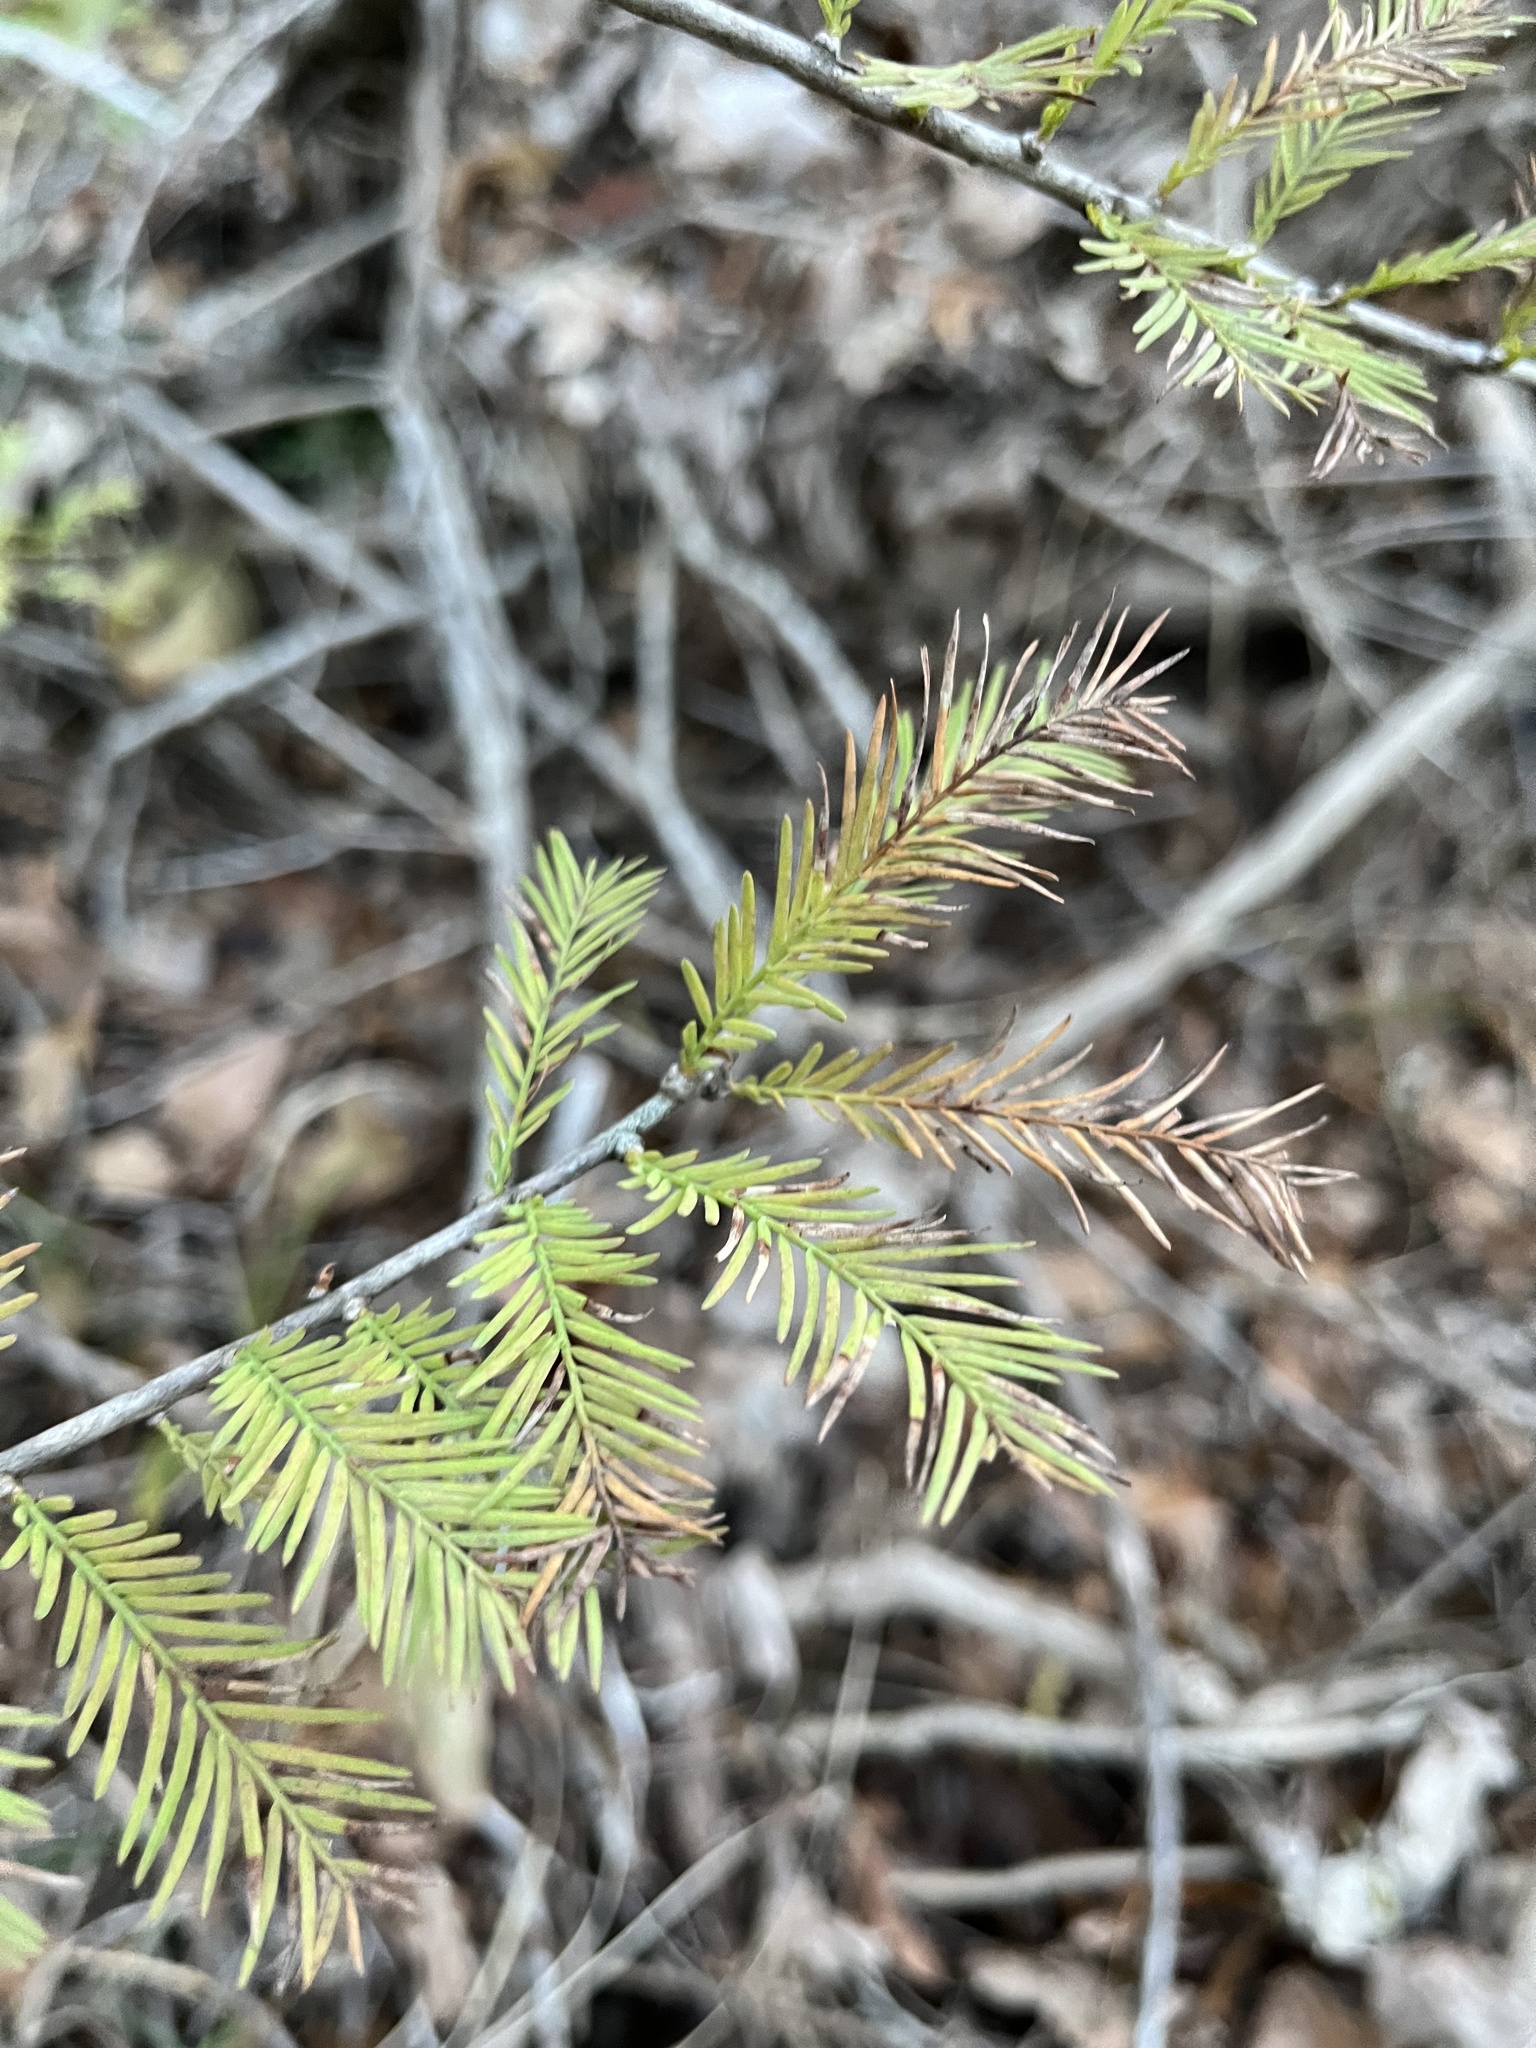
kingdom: Plantae
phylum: Tracheophyta
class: Pinopsida
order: Pinales
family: Cupressaceae
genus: Taxodium
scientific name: Taxodium distichum
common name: Bald cypress
